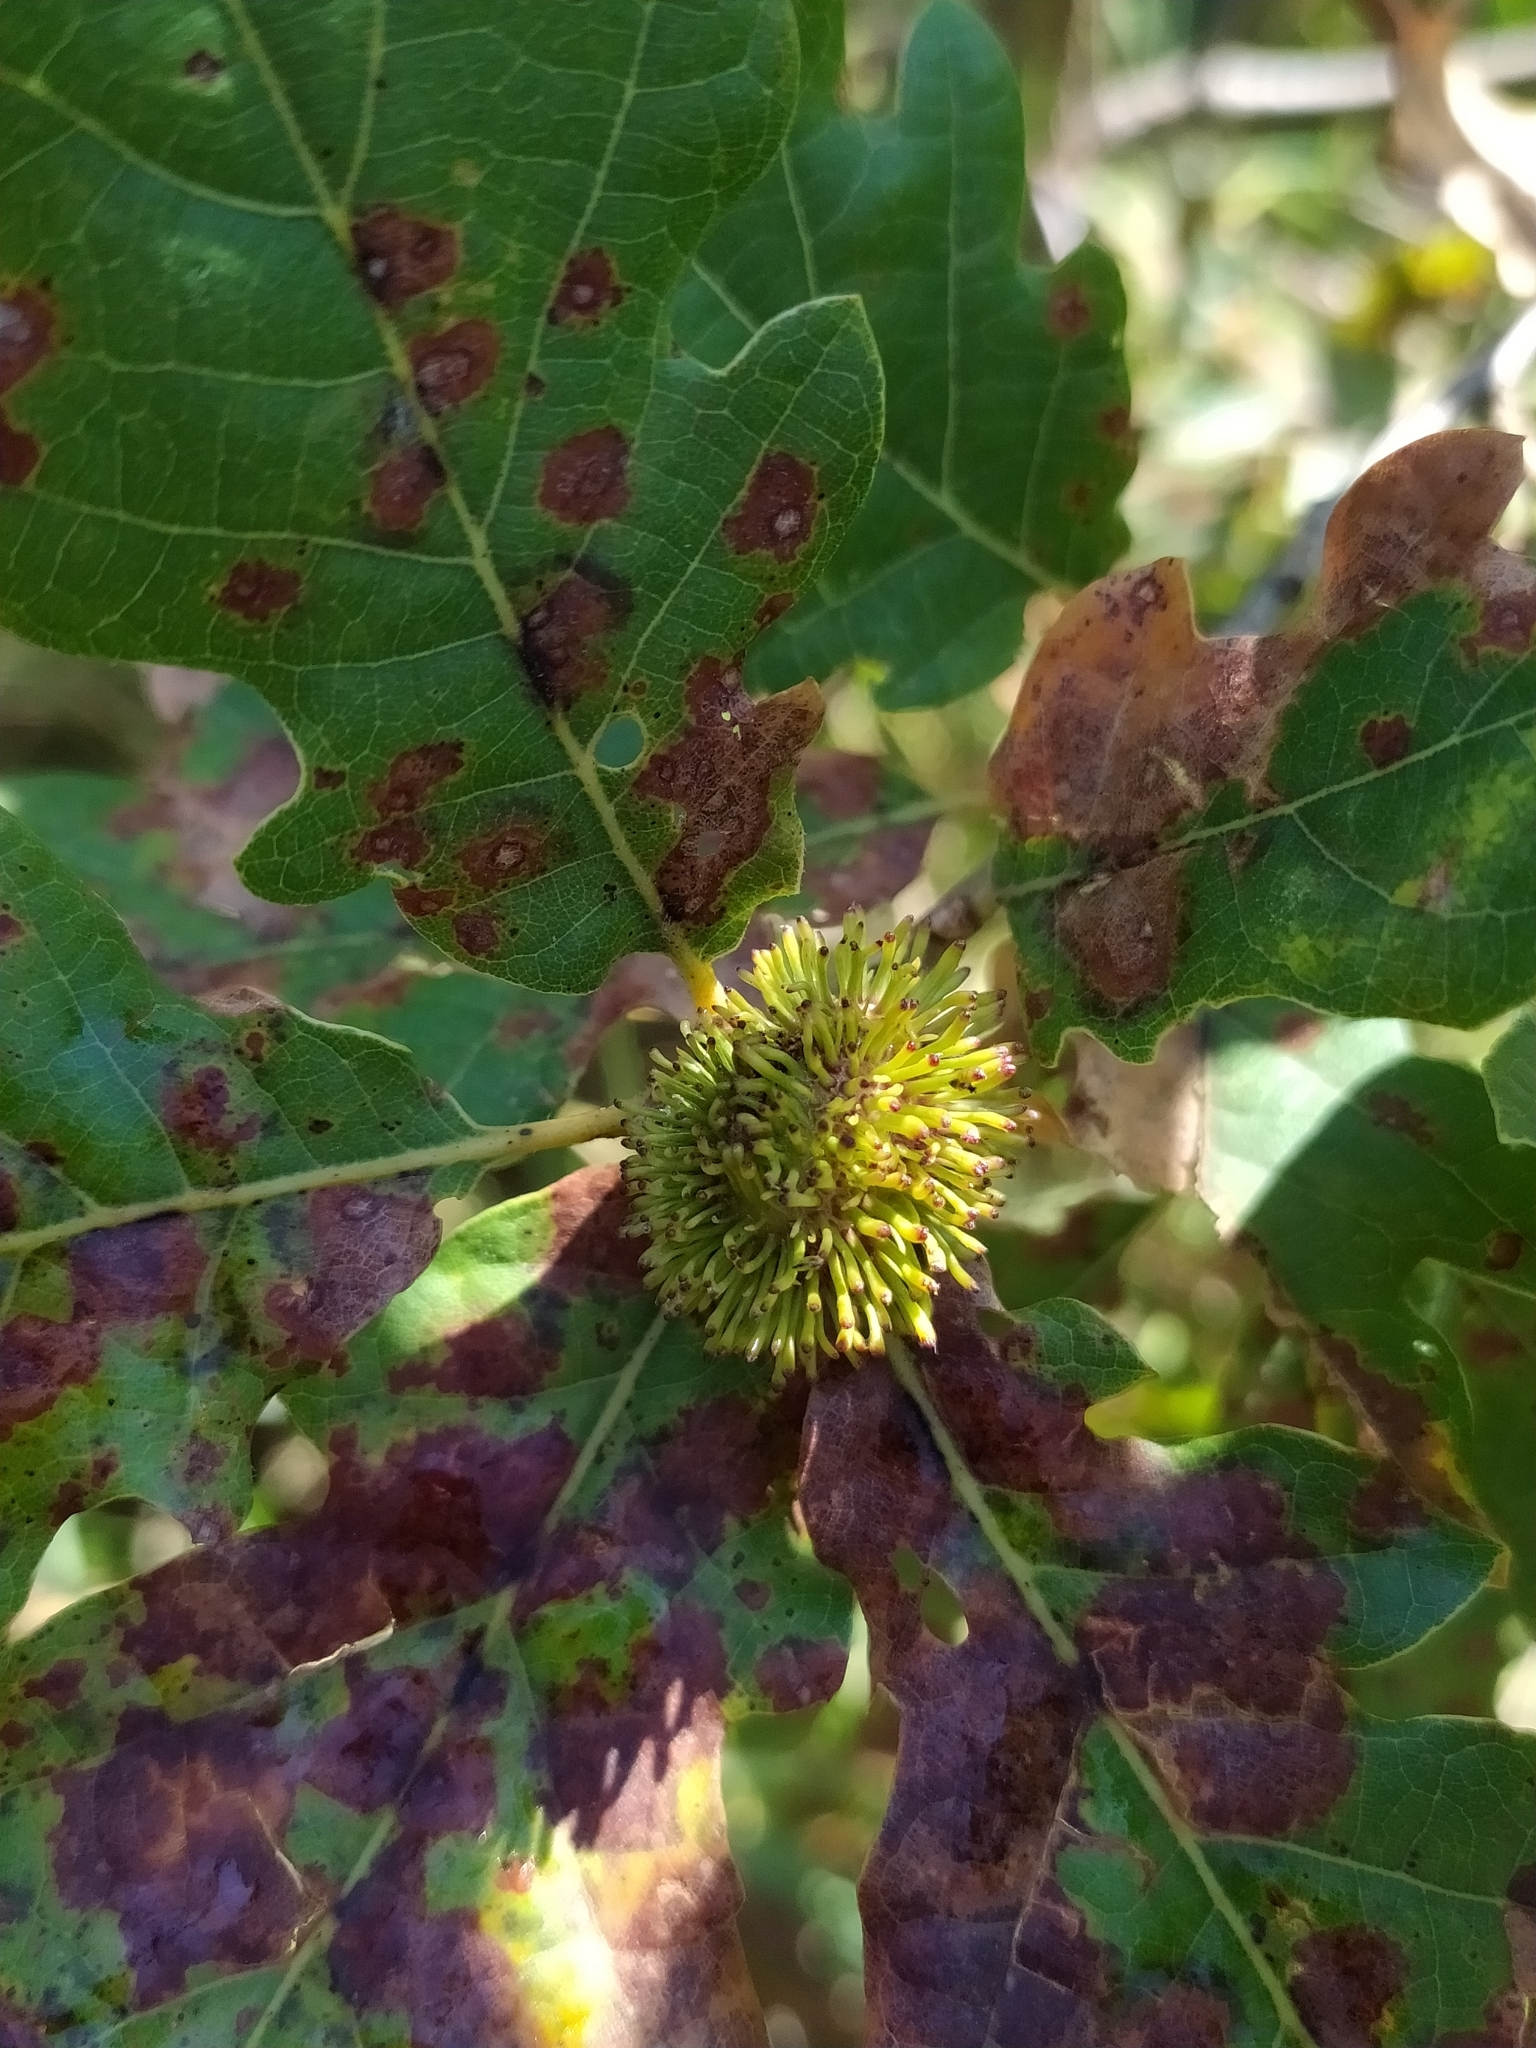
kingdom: Animalia
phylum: Arthropoda
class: Insecta
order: Hymenoptera
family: Cynipidae
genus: Andricus
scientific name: Andricus lucidus
